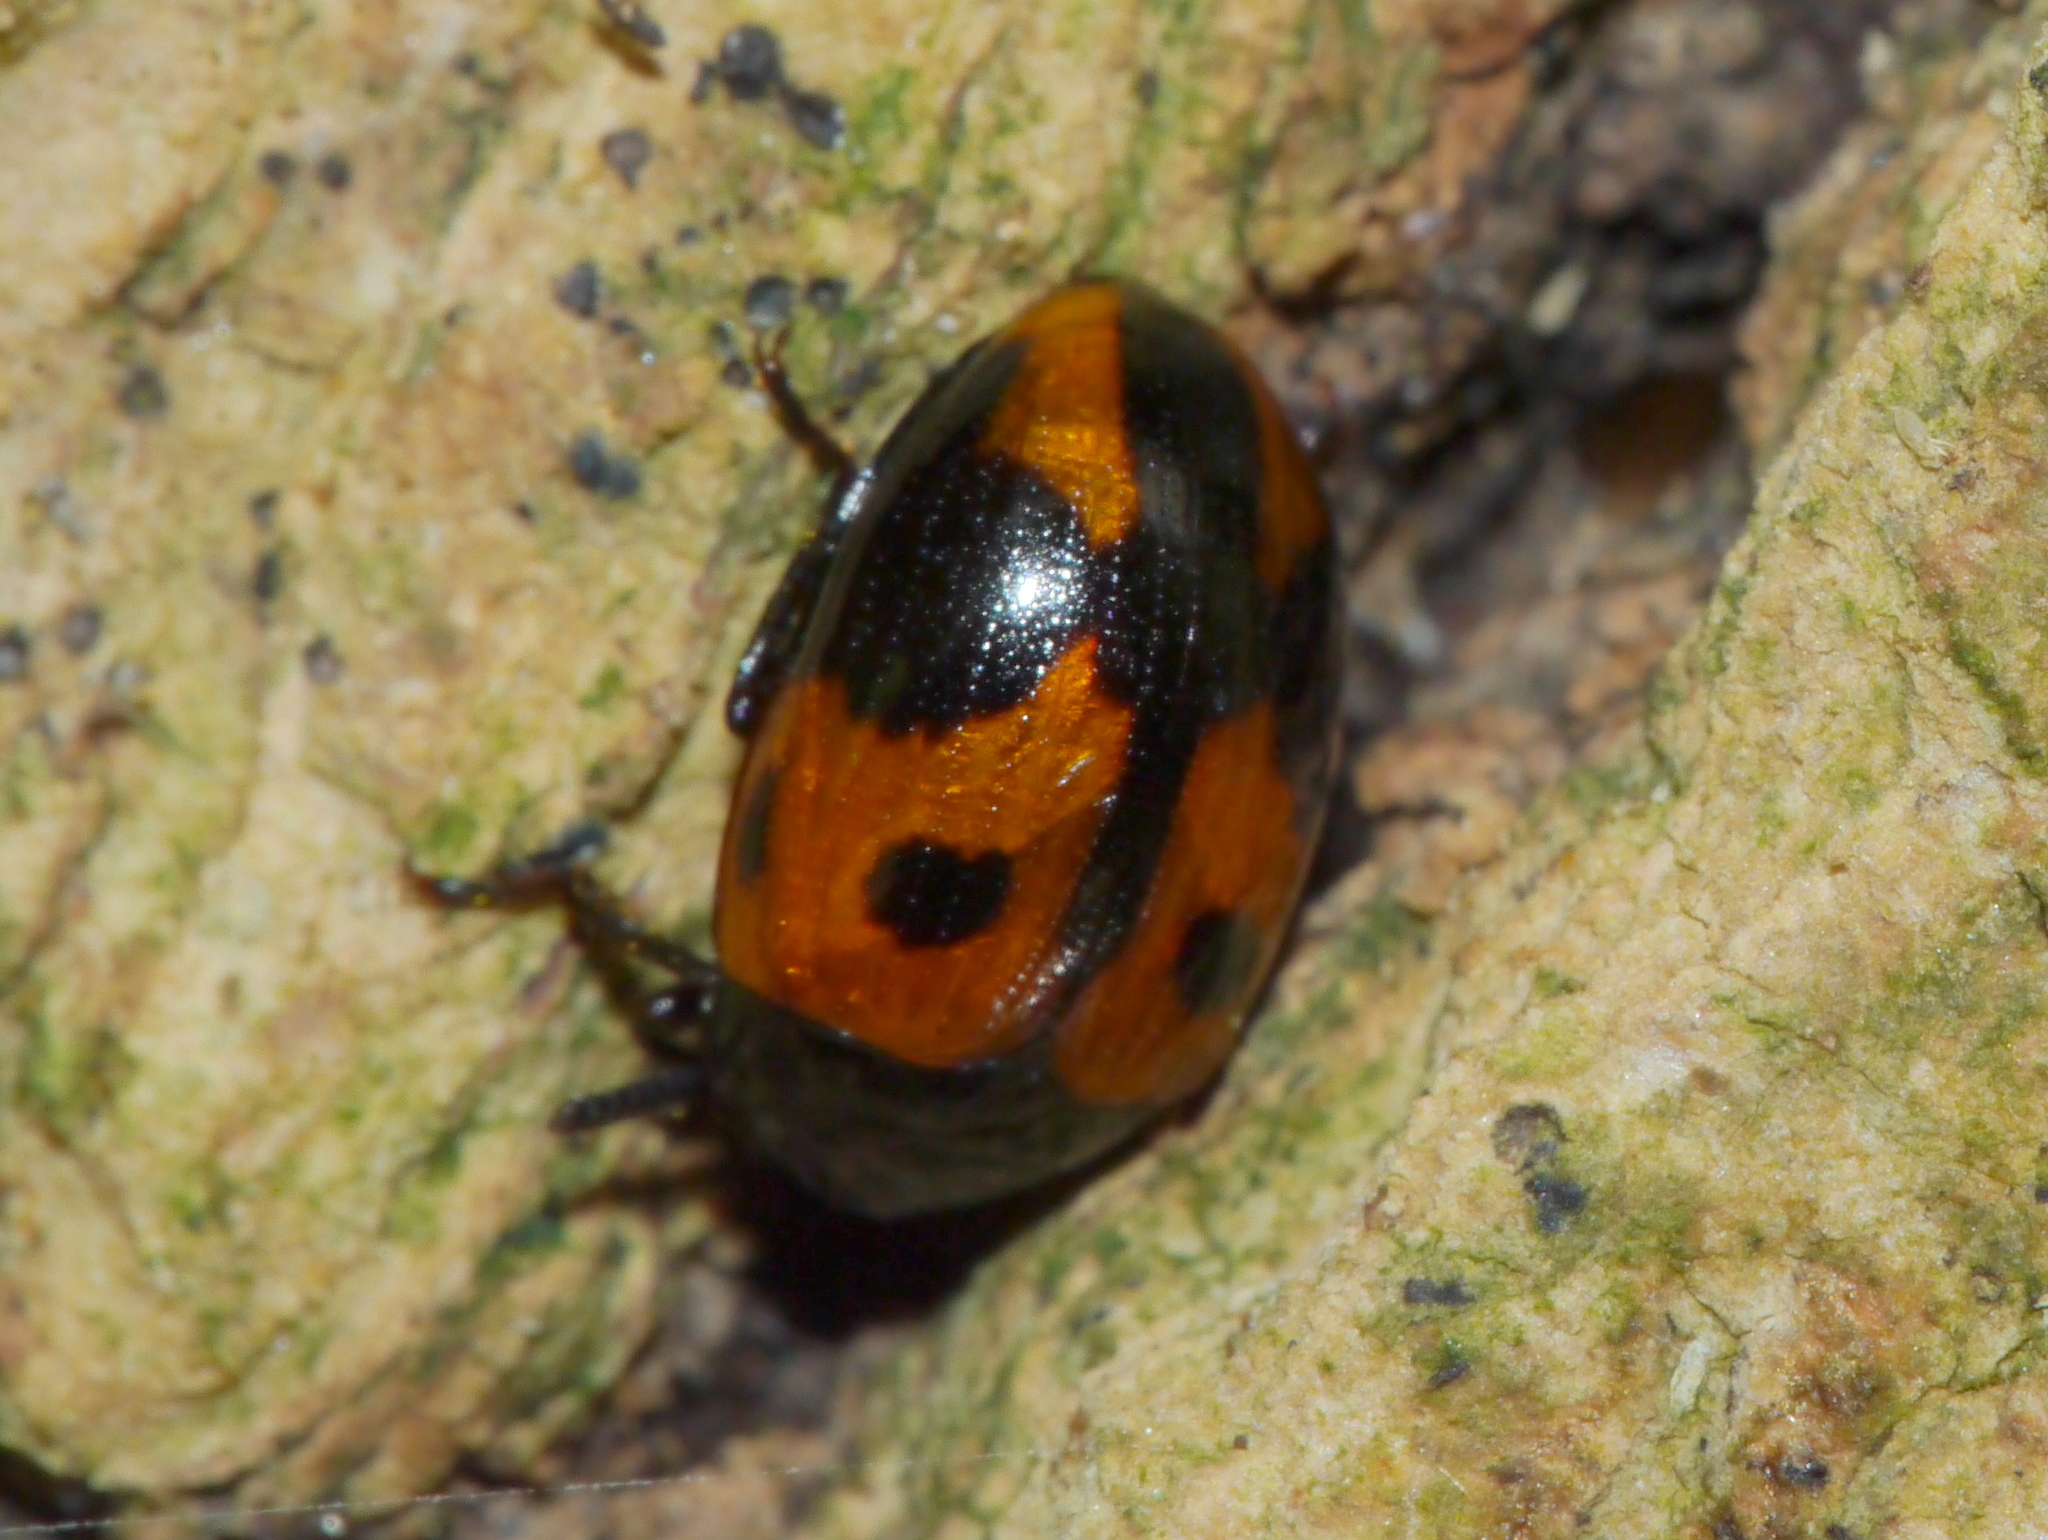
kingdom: Animalia
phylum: Arthropoda
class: Insecta
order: Coleoptera
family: Tenebrionidae
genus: Diaperis
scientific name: Diaperis maculata
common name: Darkling beetle
